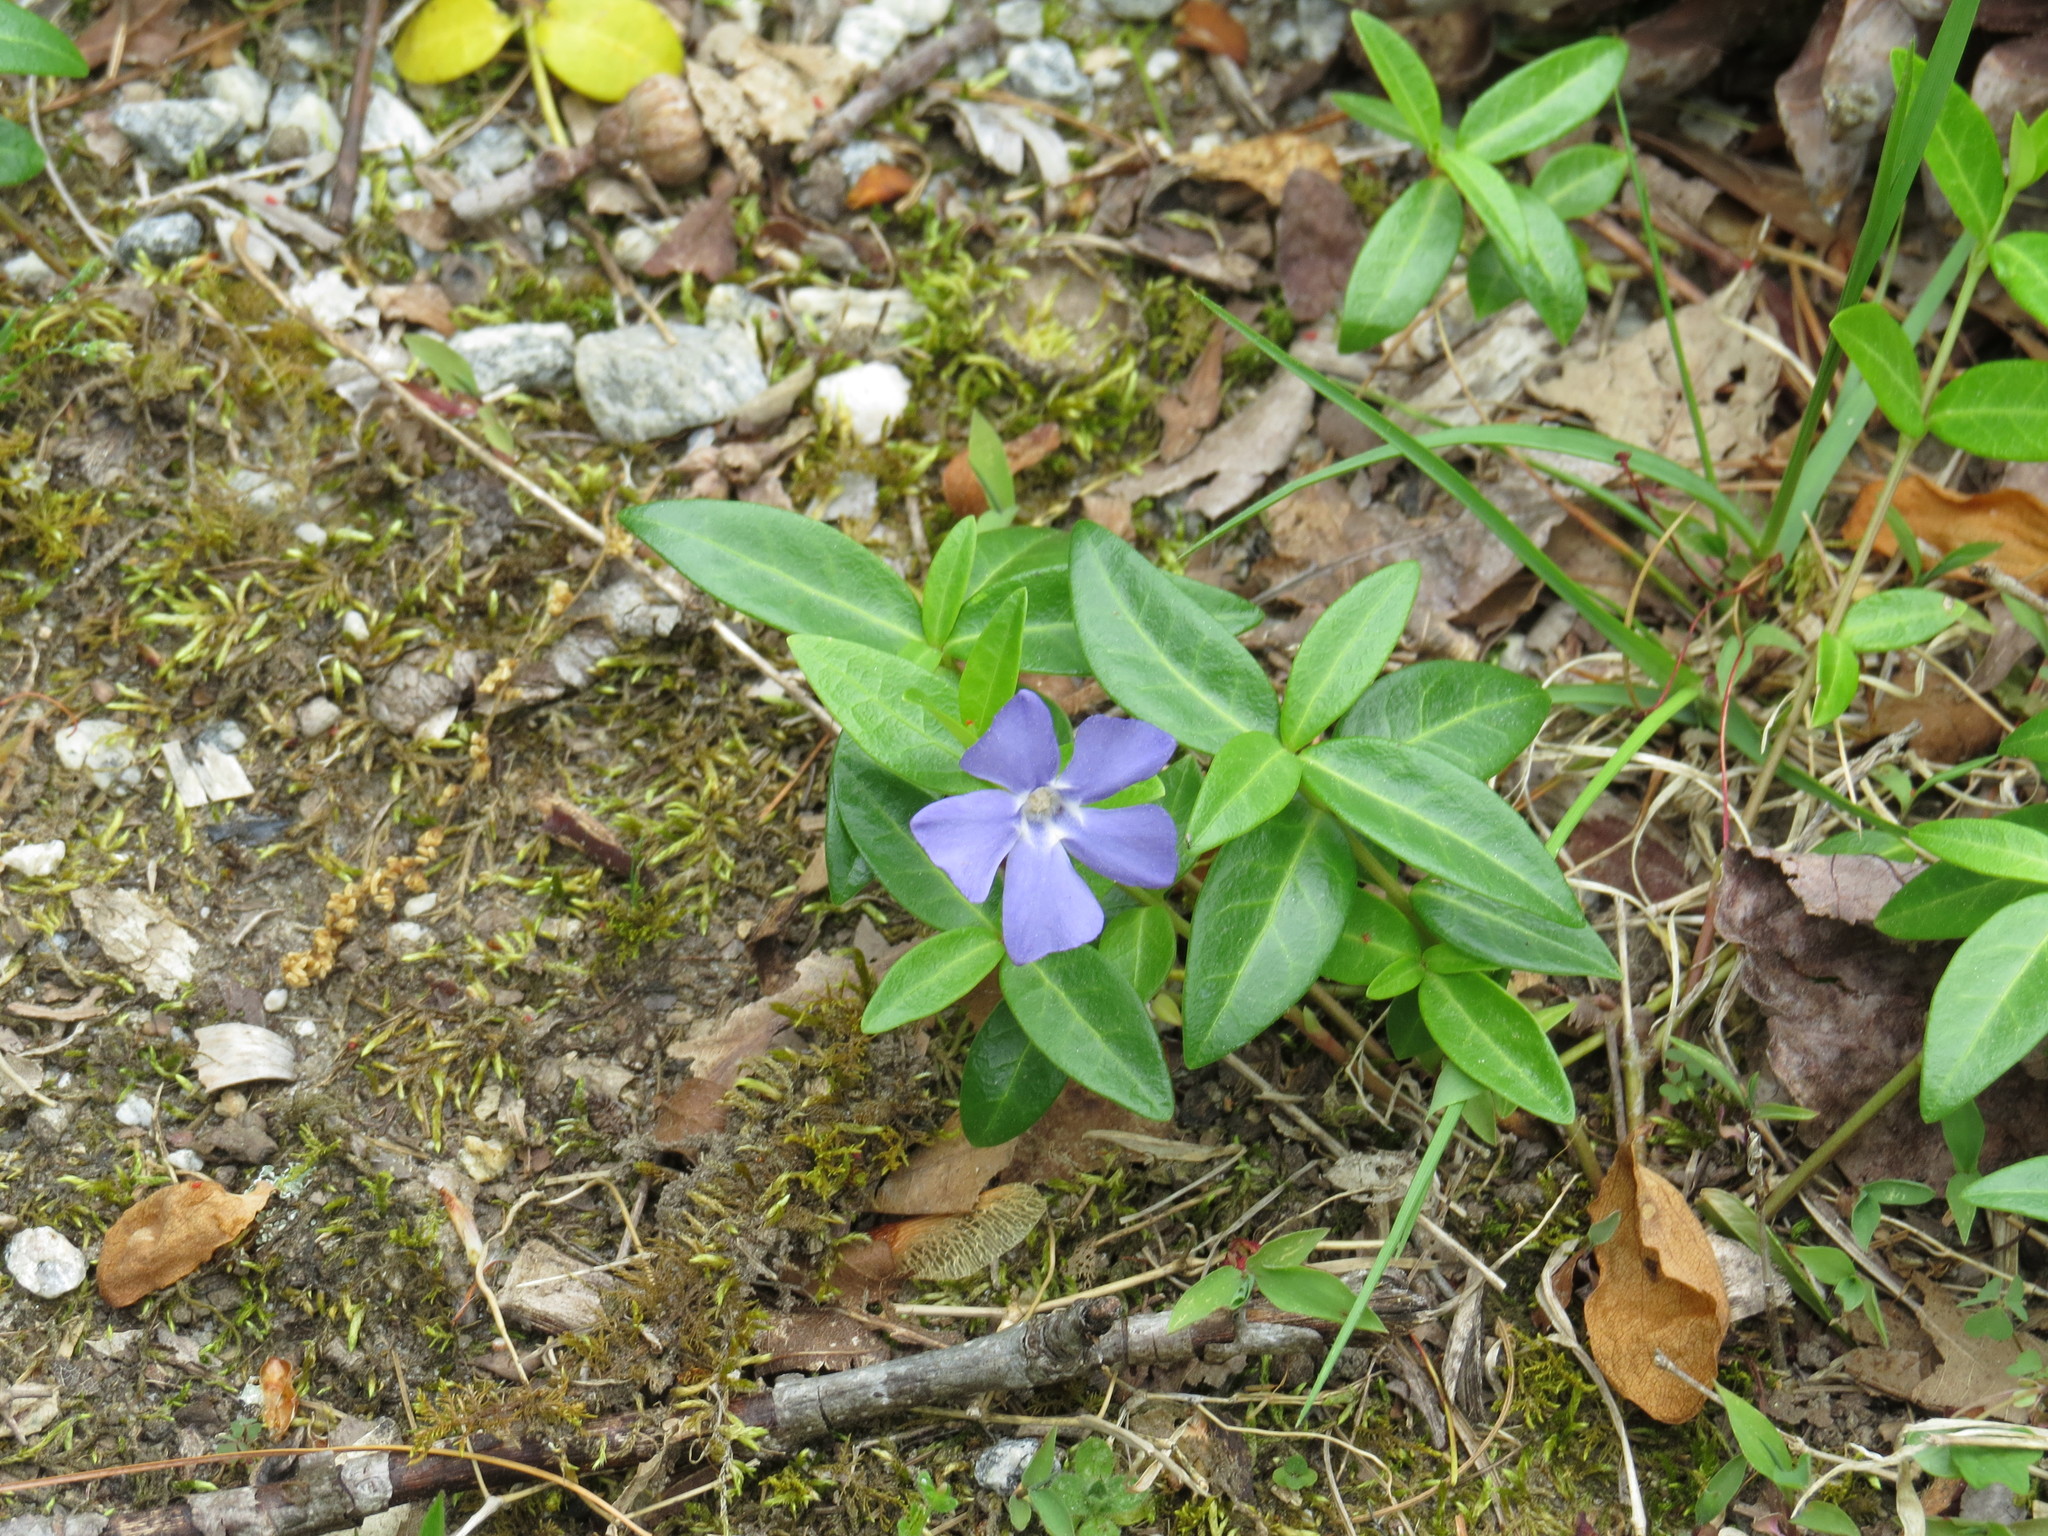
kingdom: Plantae
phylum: Tracheophyta
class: Magnoliopsida
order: Gentianales
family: Apocynaceae
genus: Vinca
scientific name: Vinca minor
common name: Lesser periwinkle
